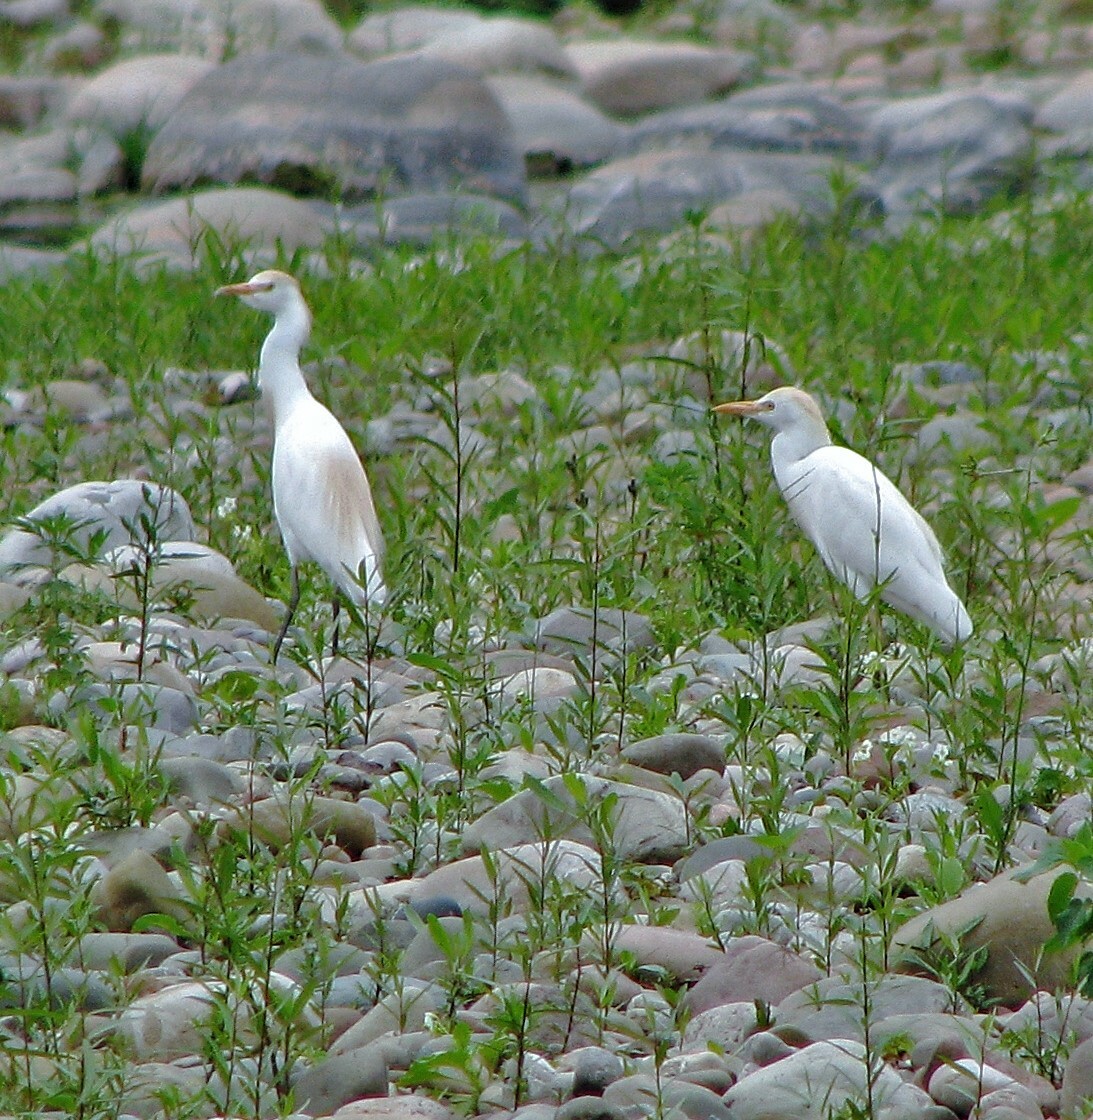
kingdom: Animalia
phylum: Chordata
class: Aves
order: Pelecaniformes
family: Ardeidae
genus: Bubulcus
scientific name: Bubulcus ibis
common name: Cattle egret
